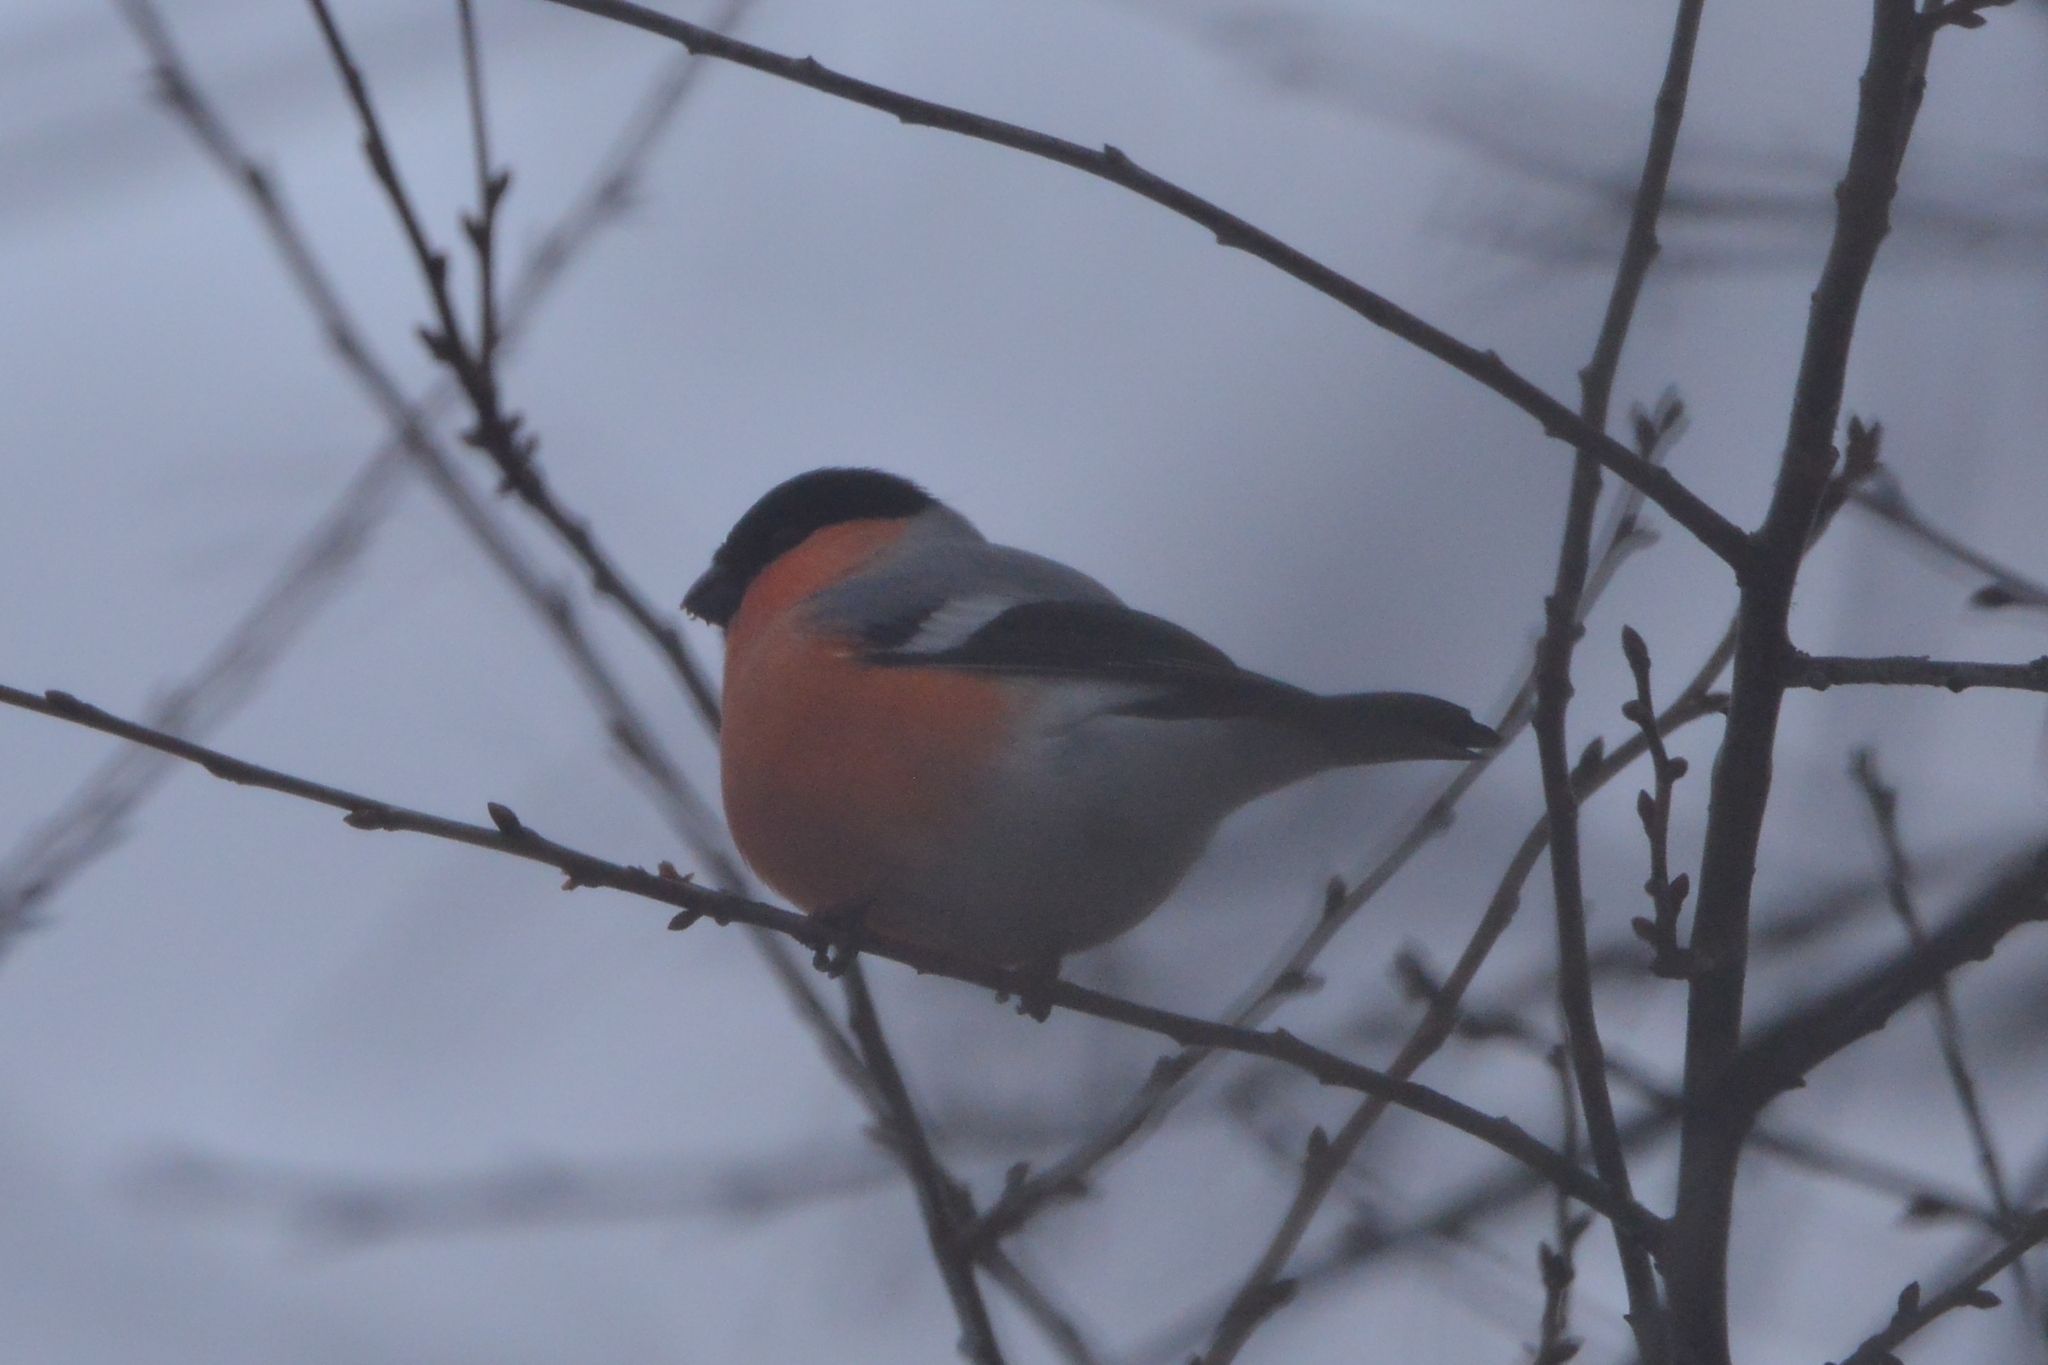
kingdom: Animalia
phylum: Chordata
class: Aves
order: Passeriformes
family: Fringillidae
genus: Pyrrhula
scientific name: Pyrrhula pyrrhula
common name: Eurasian bullfinch
